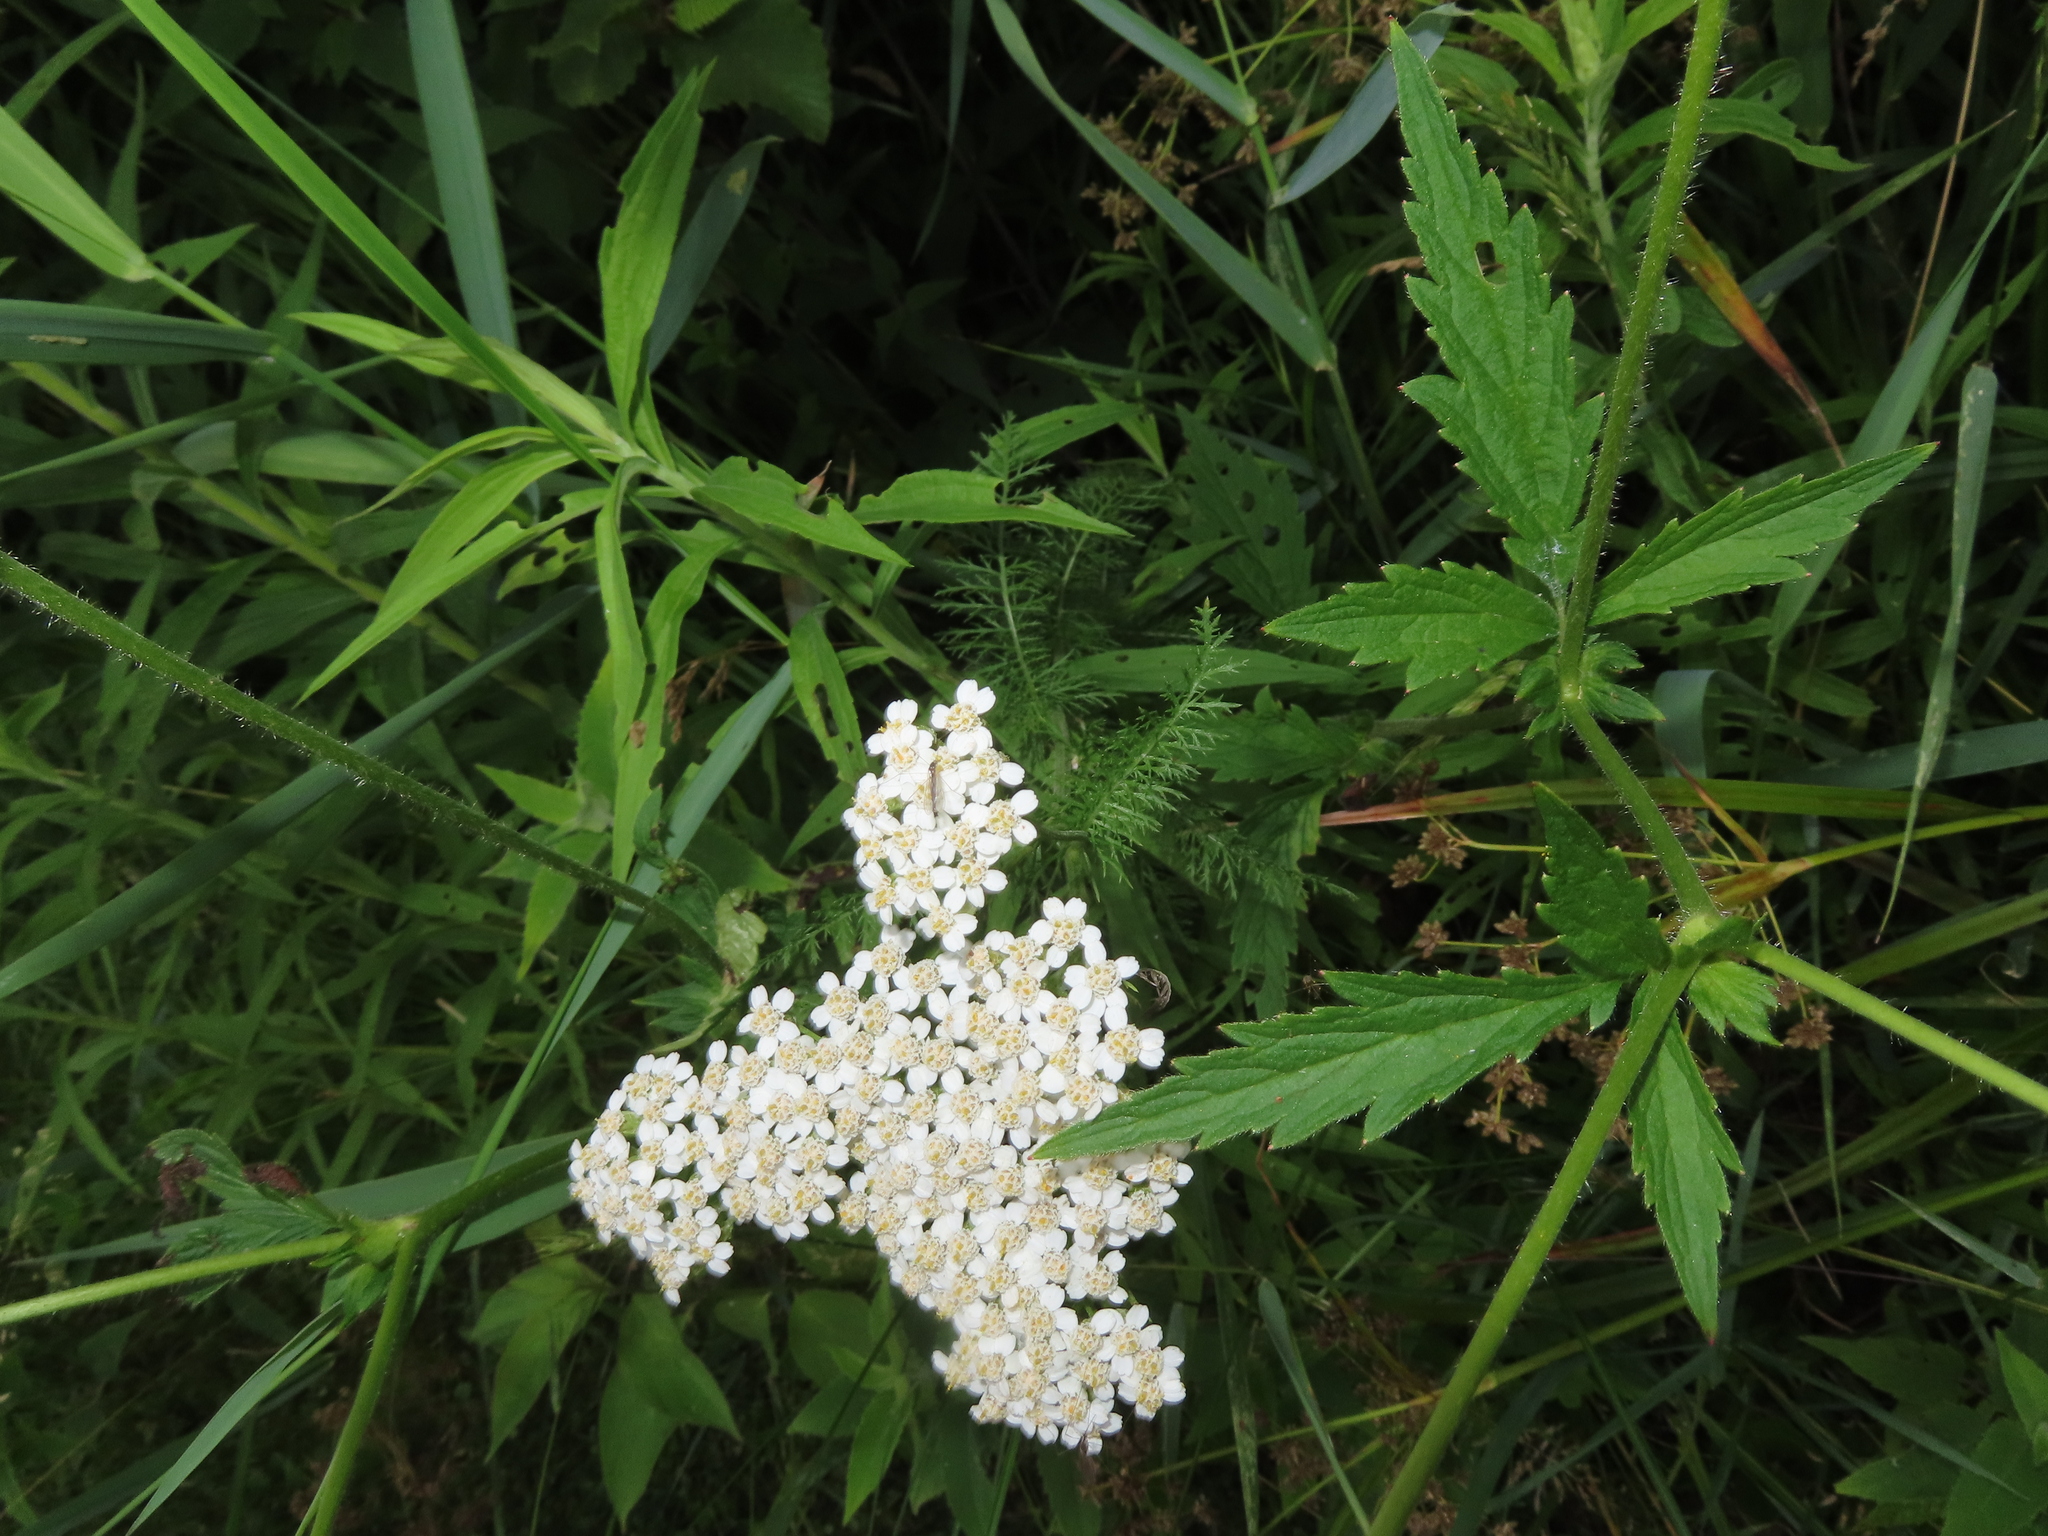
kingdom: Plantae
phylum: Tracheophyta
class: Magnoliopsida
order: Asterales
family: Asteraceae
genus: Achillea
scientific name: Achillea millefolium
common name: Yarrow
